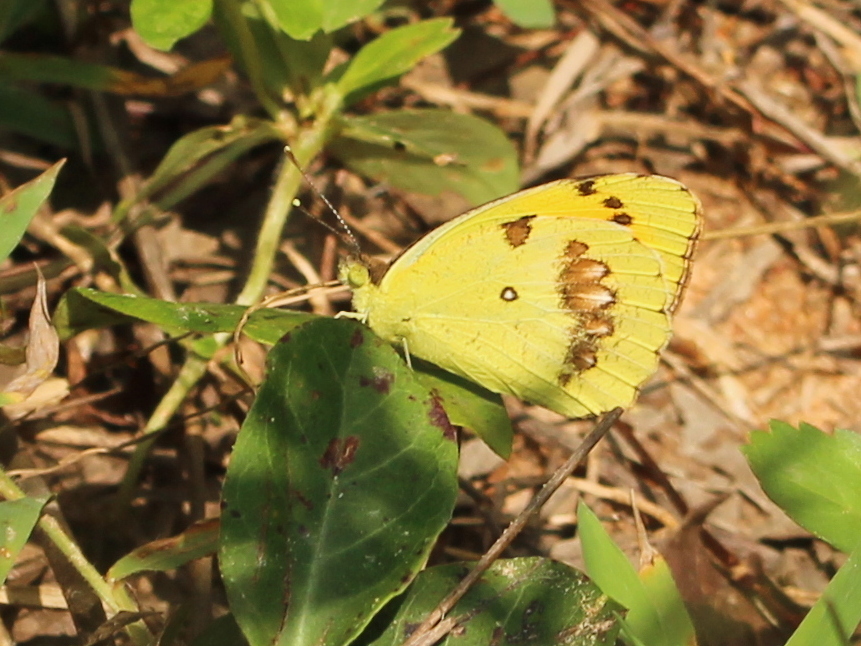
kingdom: Animalia
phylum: Arthropoda
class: Insecta
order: Lepidoptera
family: Pieridae
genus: Ixias
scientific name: Ixias marianne
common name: White orange tip
